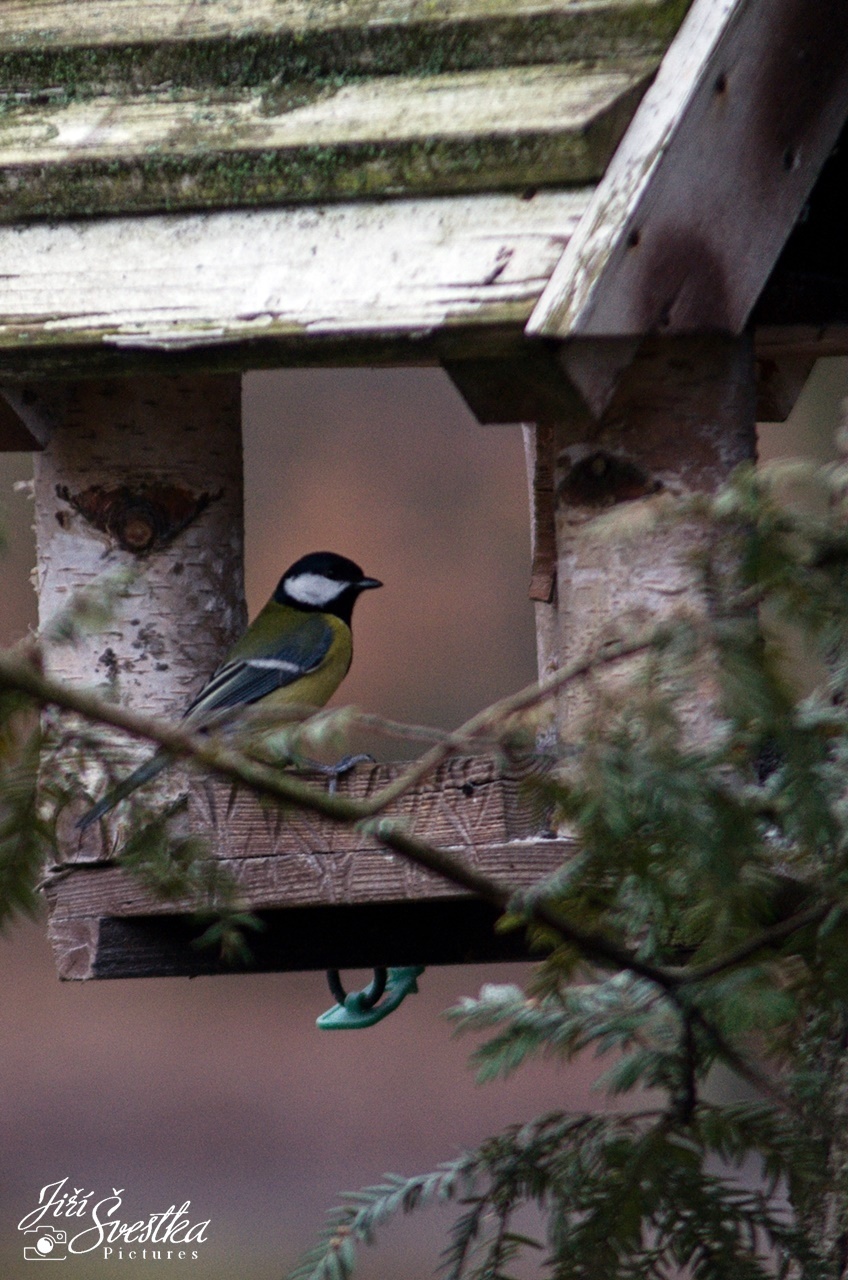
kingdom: Animalia
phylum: Chordata
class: Aves
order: Passeriformes
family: Paridae
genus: Parus
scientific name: Parus major
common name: Great tit
